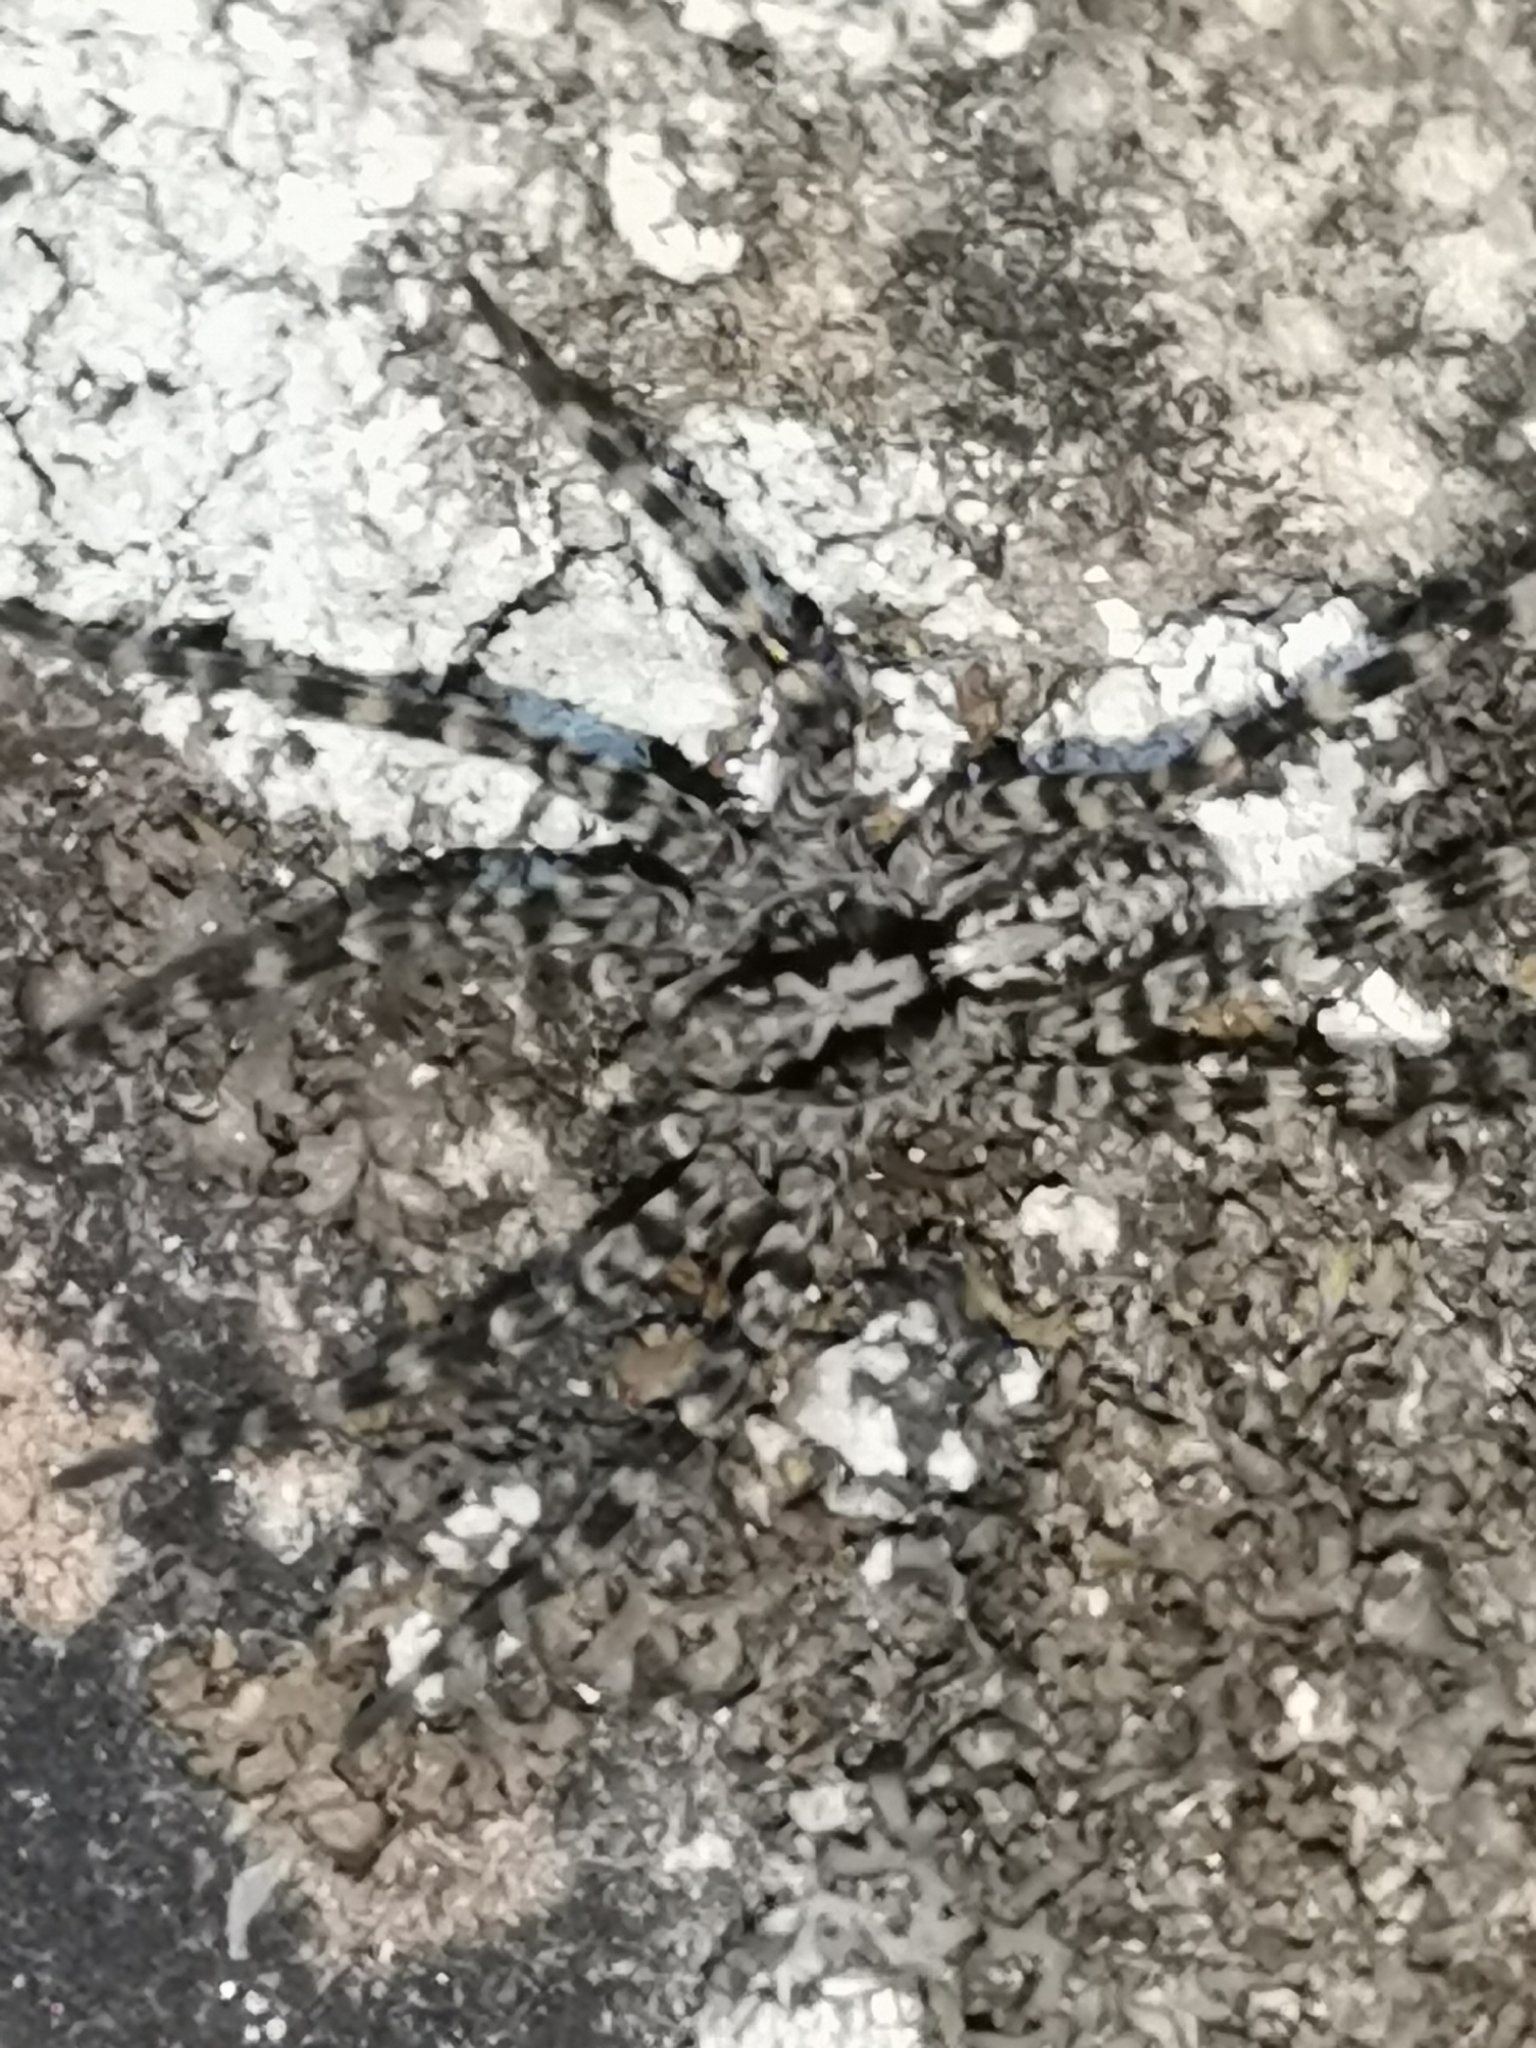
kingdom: Animalia
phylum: Arthropoda
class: Arachnida
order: Araneae
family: Lycosidae
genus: Acantholycosa
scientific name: Acantholycosa lignaria
